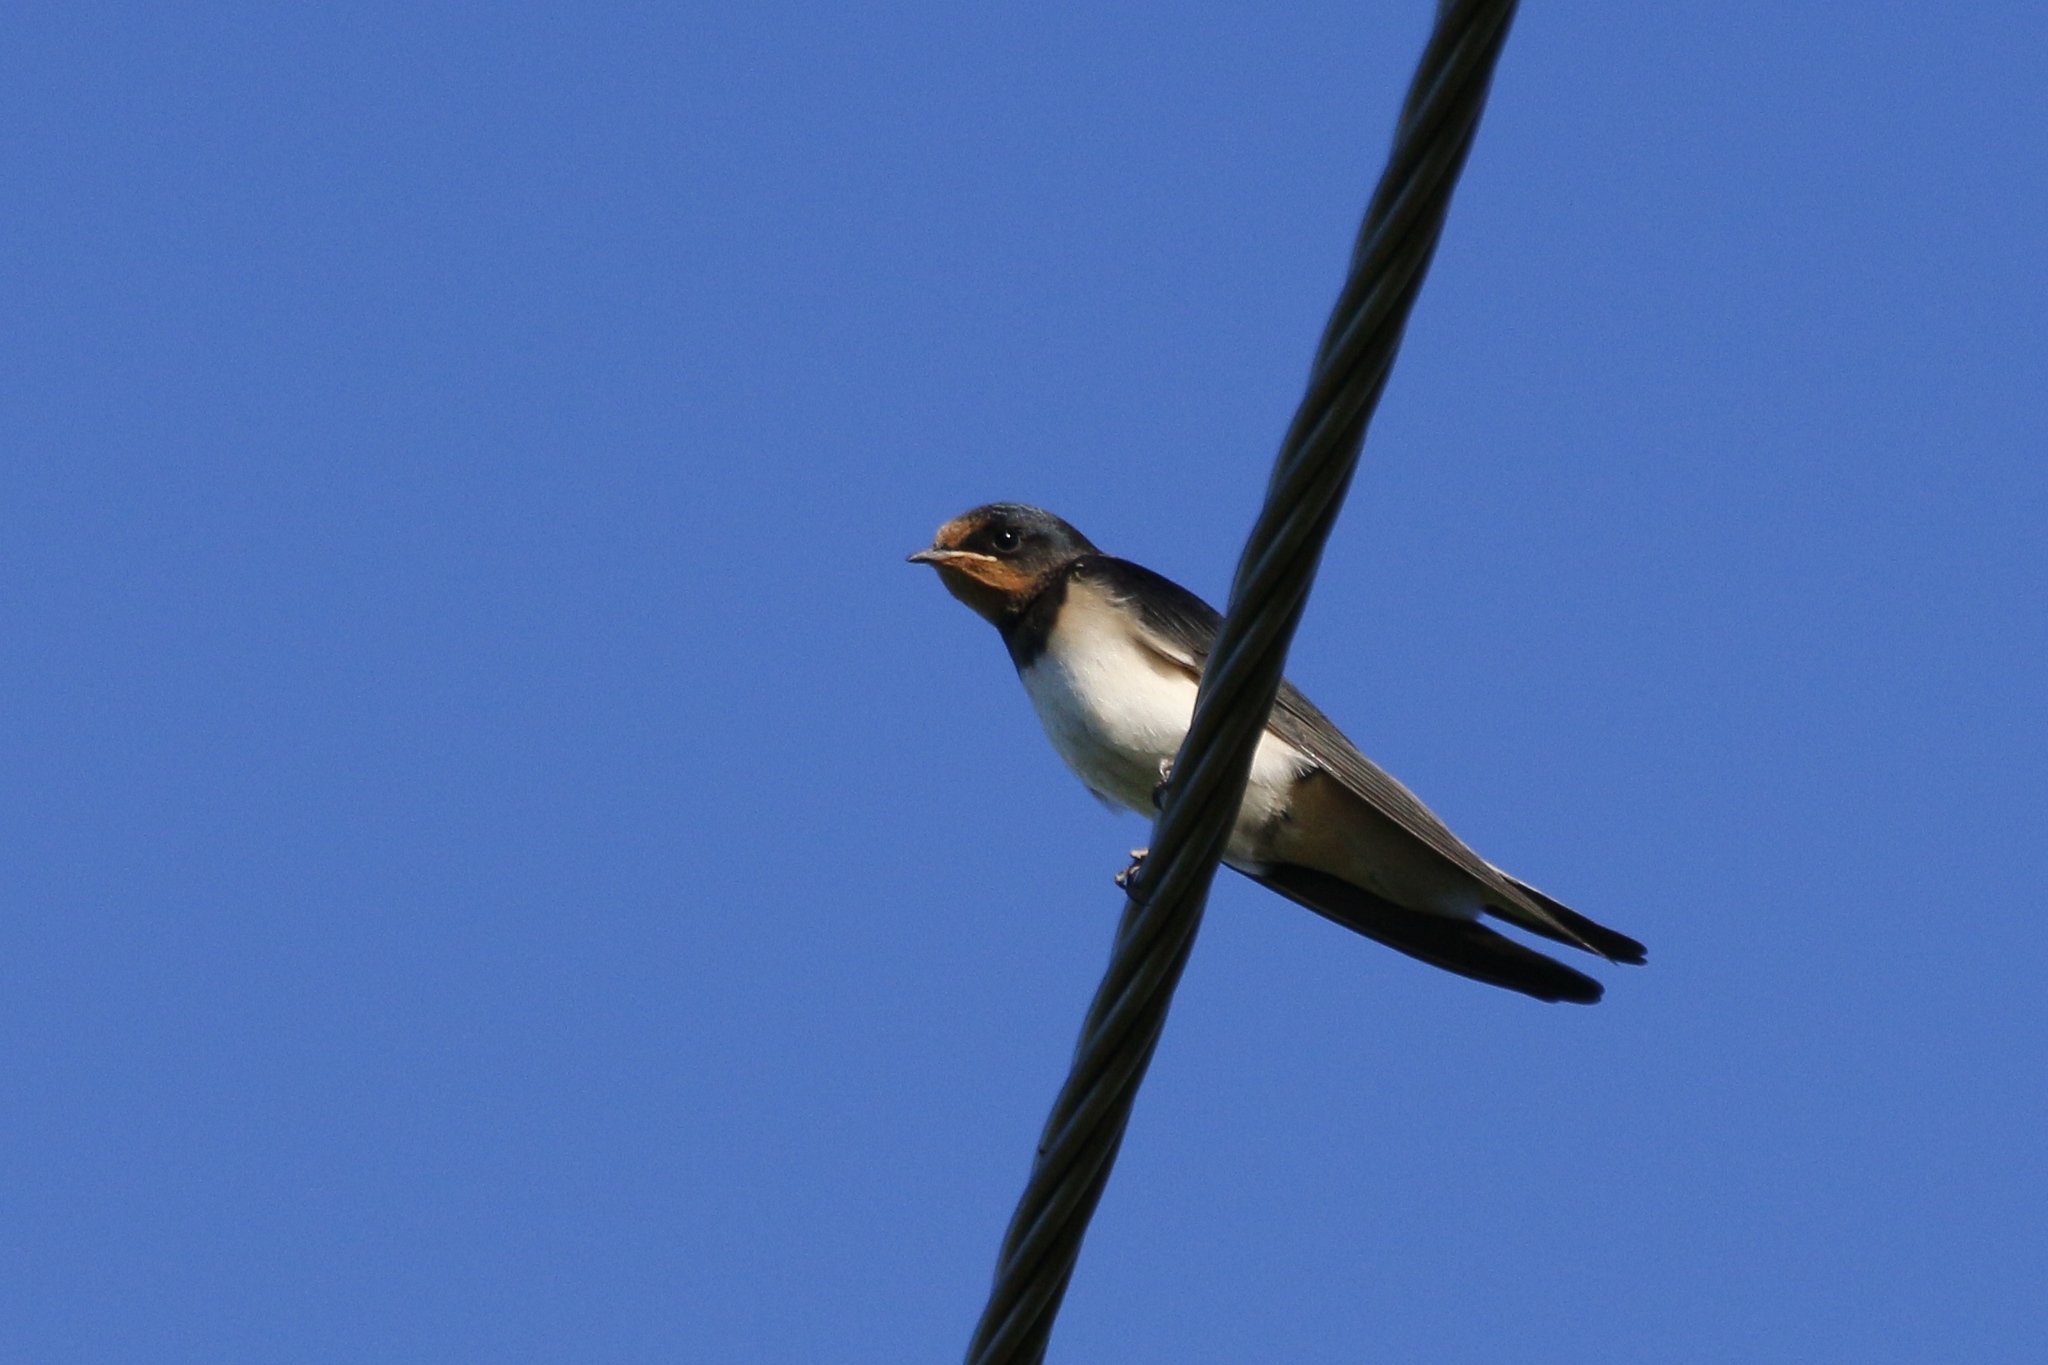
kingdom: Animalia
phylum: Chordata
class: Aves
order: Passeriformes
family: Hirundinidae
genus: Hirundo
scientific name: Hirundo rustica
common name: Barn swallow
